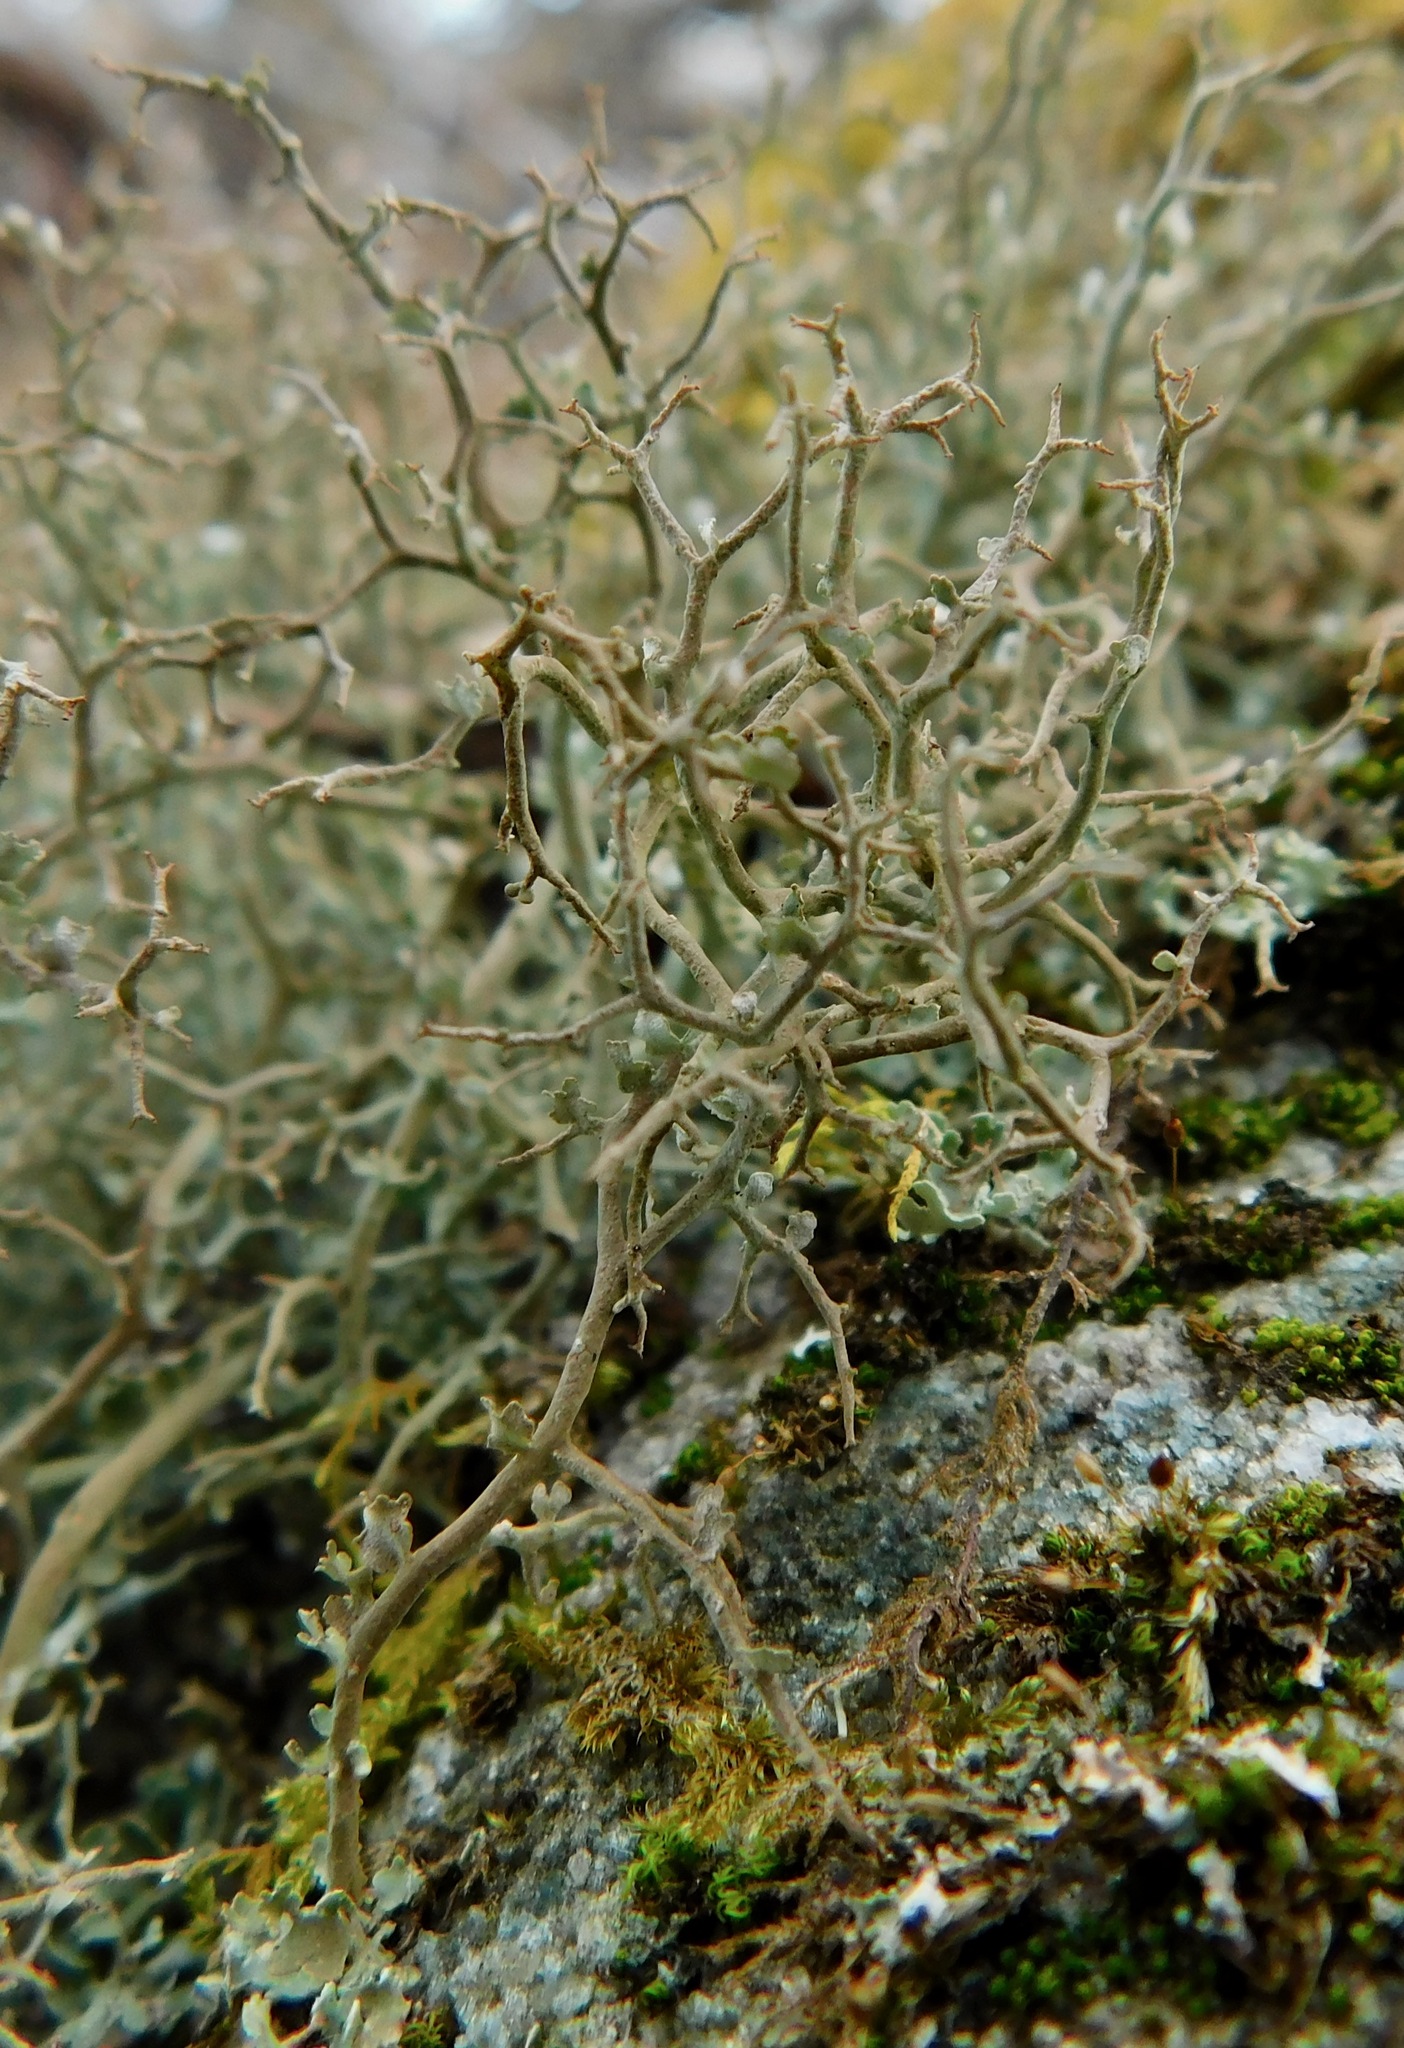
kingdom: Fungi
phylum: Ascomycota
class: Lecanoromycetes
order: Lecanorales
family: Cladoniaceae
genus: Cladonia
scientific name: Cladonia furcata
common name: Many-forked cladonia
